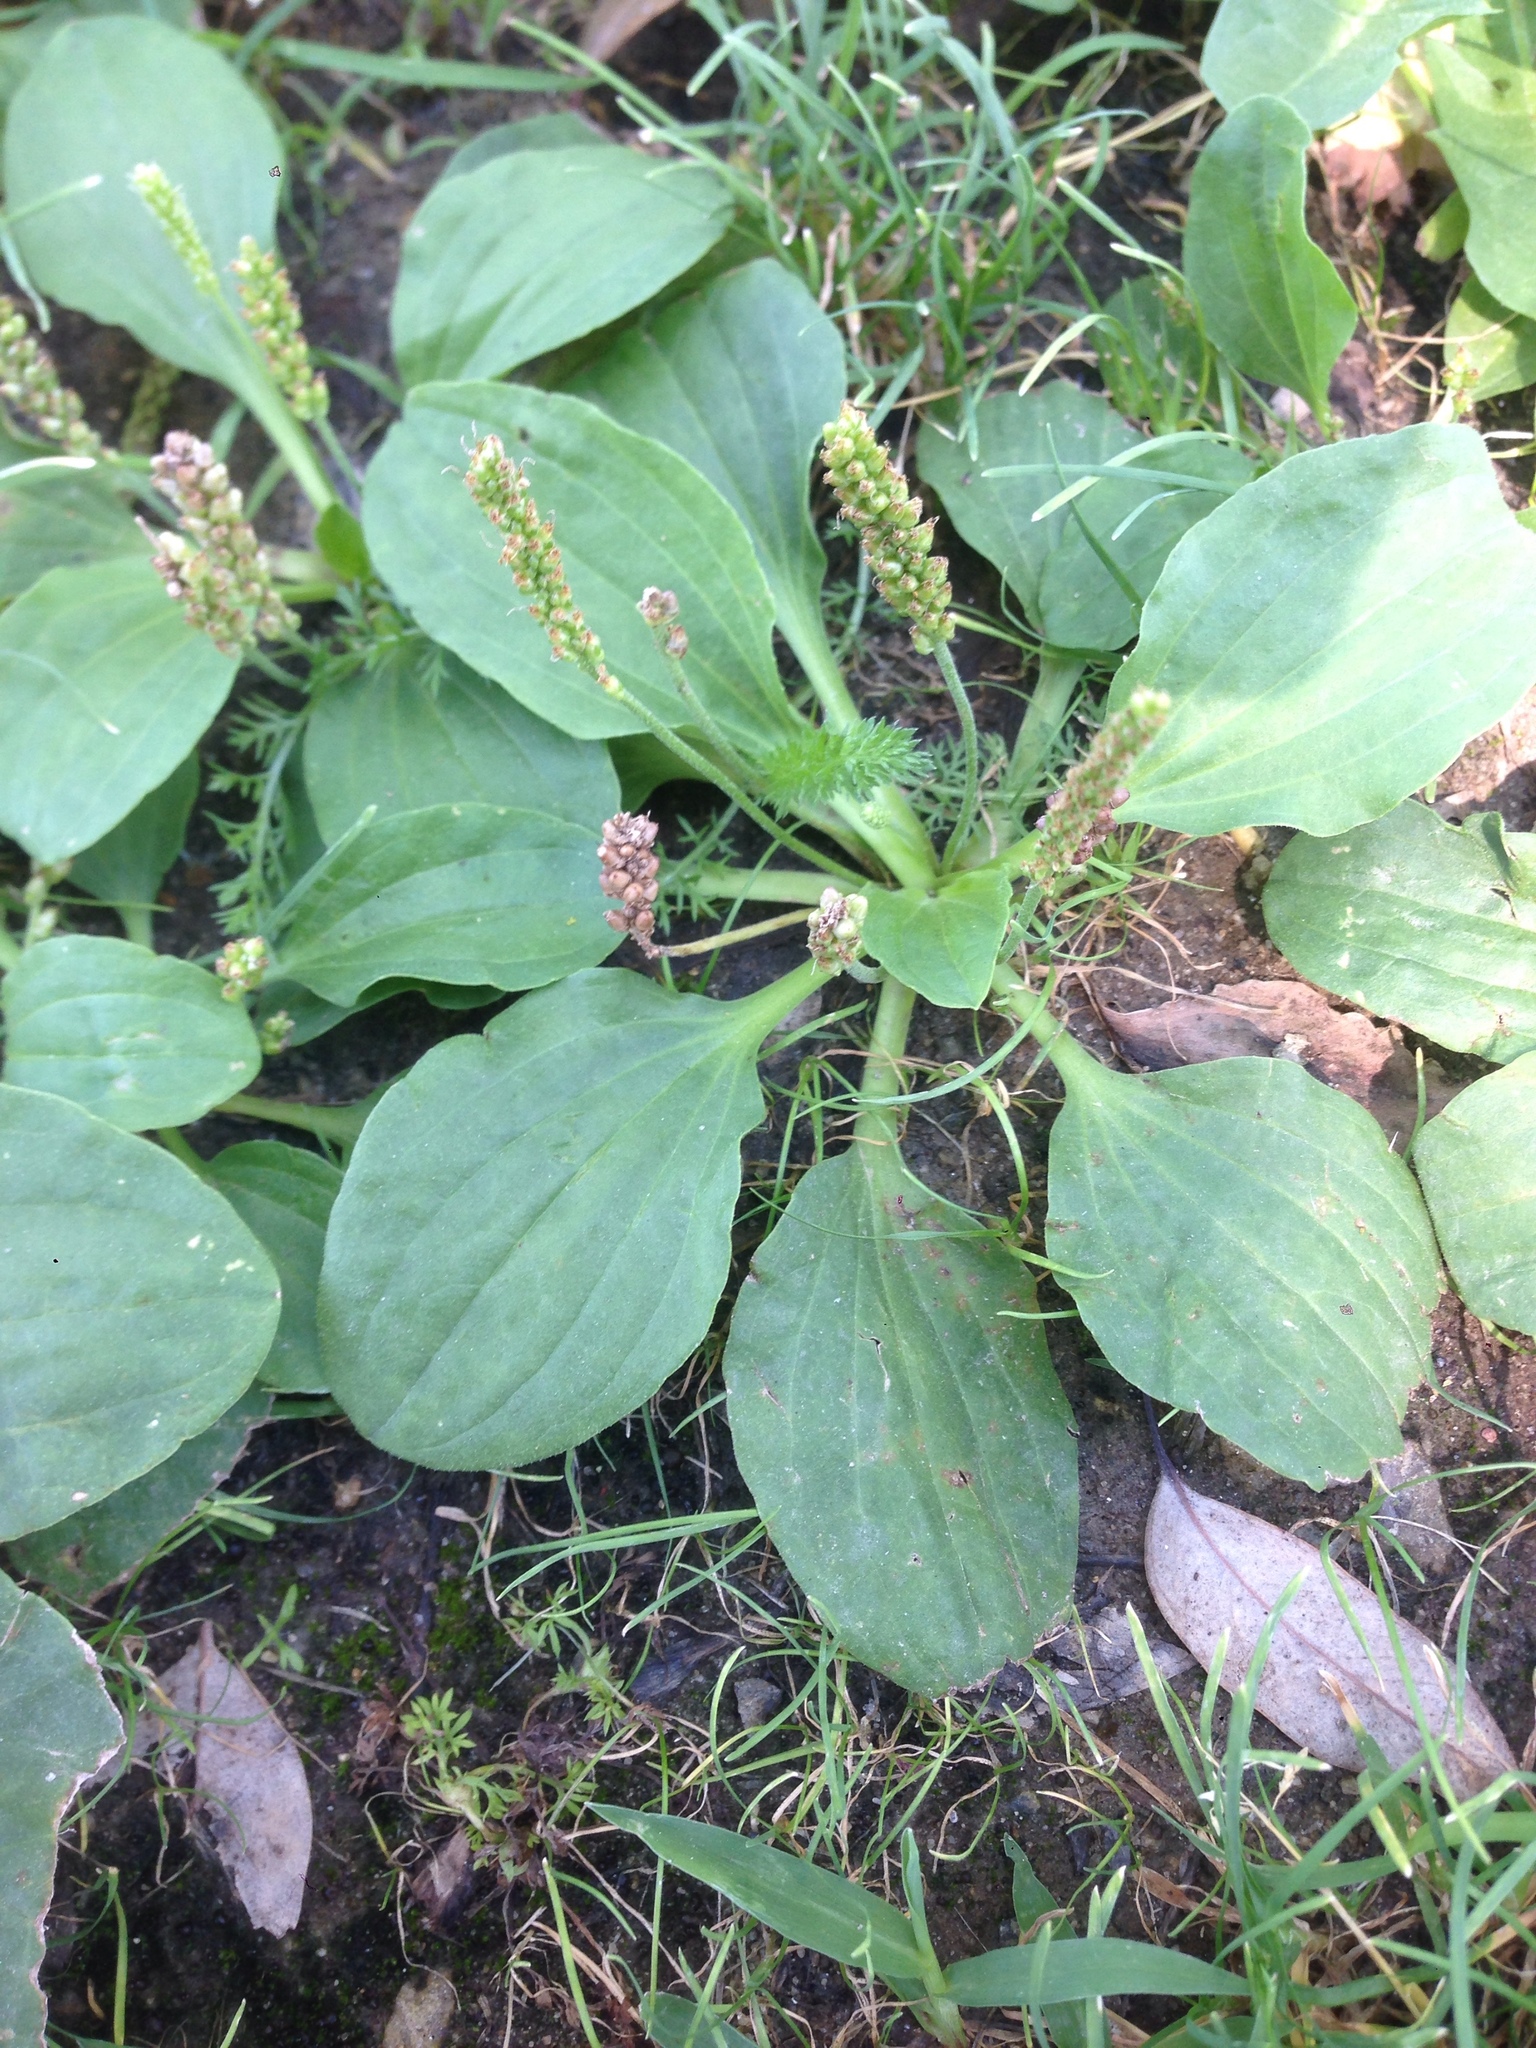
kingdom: Plantae
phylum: Tracheophyta
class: Magnoliopsida
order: Lamiales
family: Plantaginaceae
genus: Plantago
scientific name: Plantago major
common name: Common plantain
